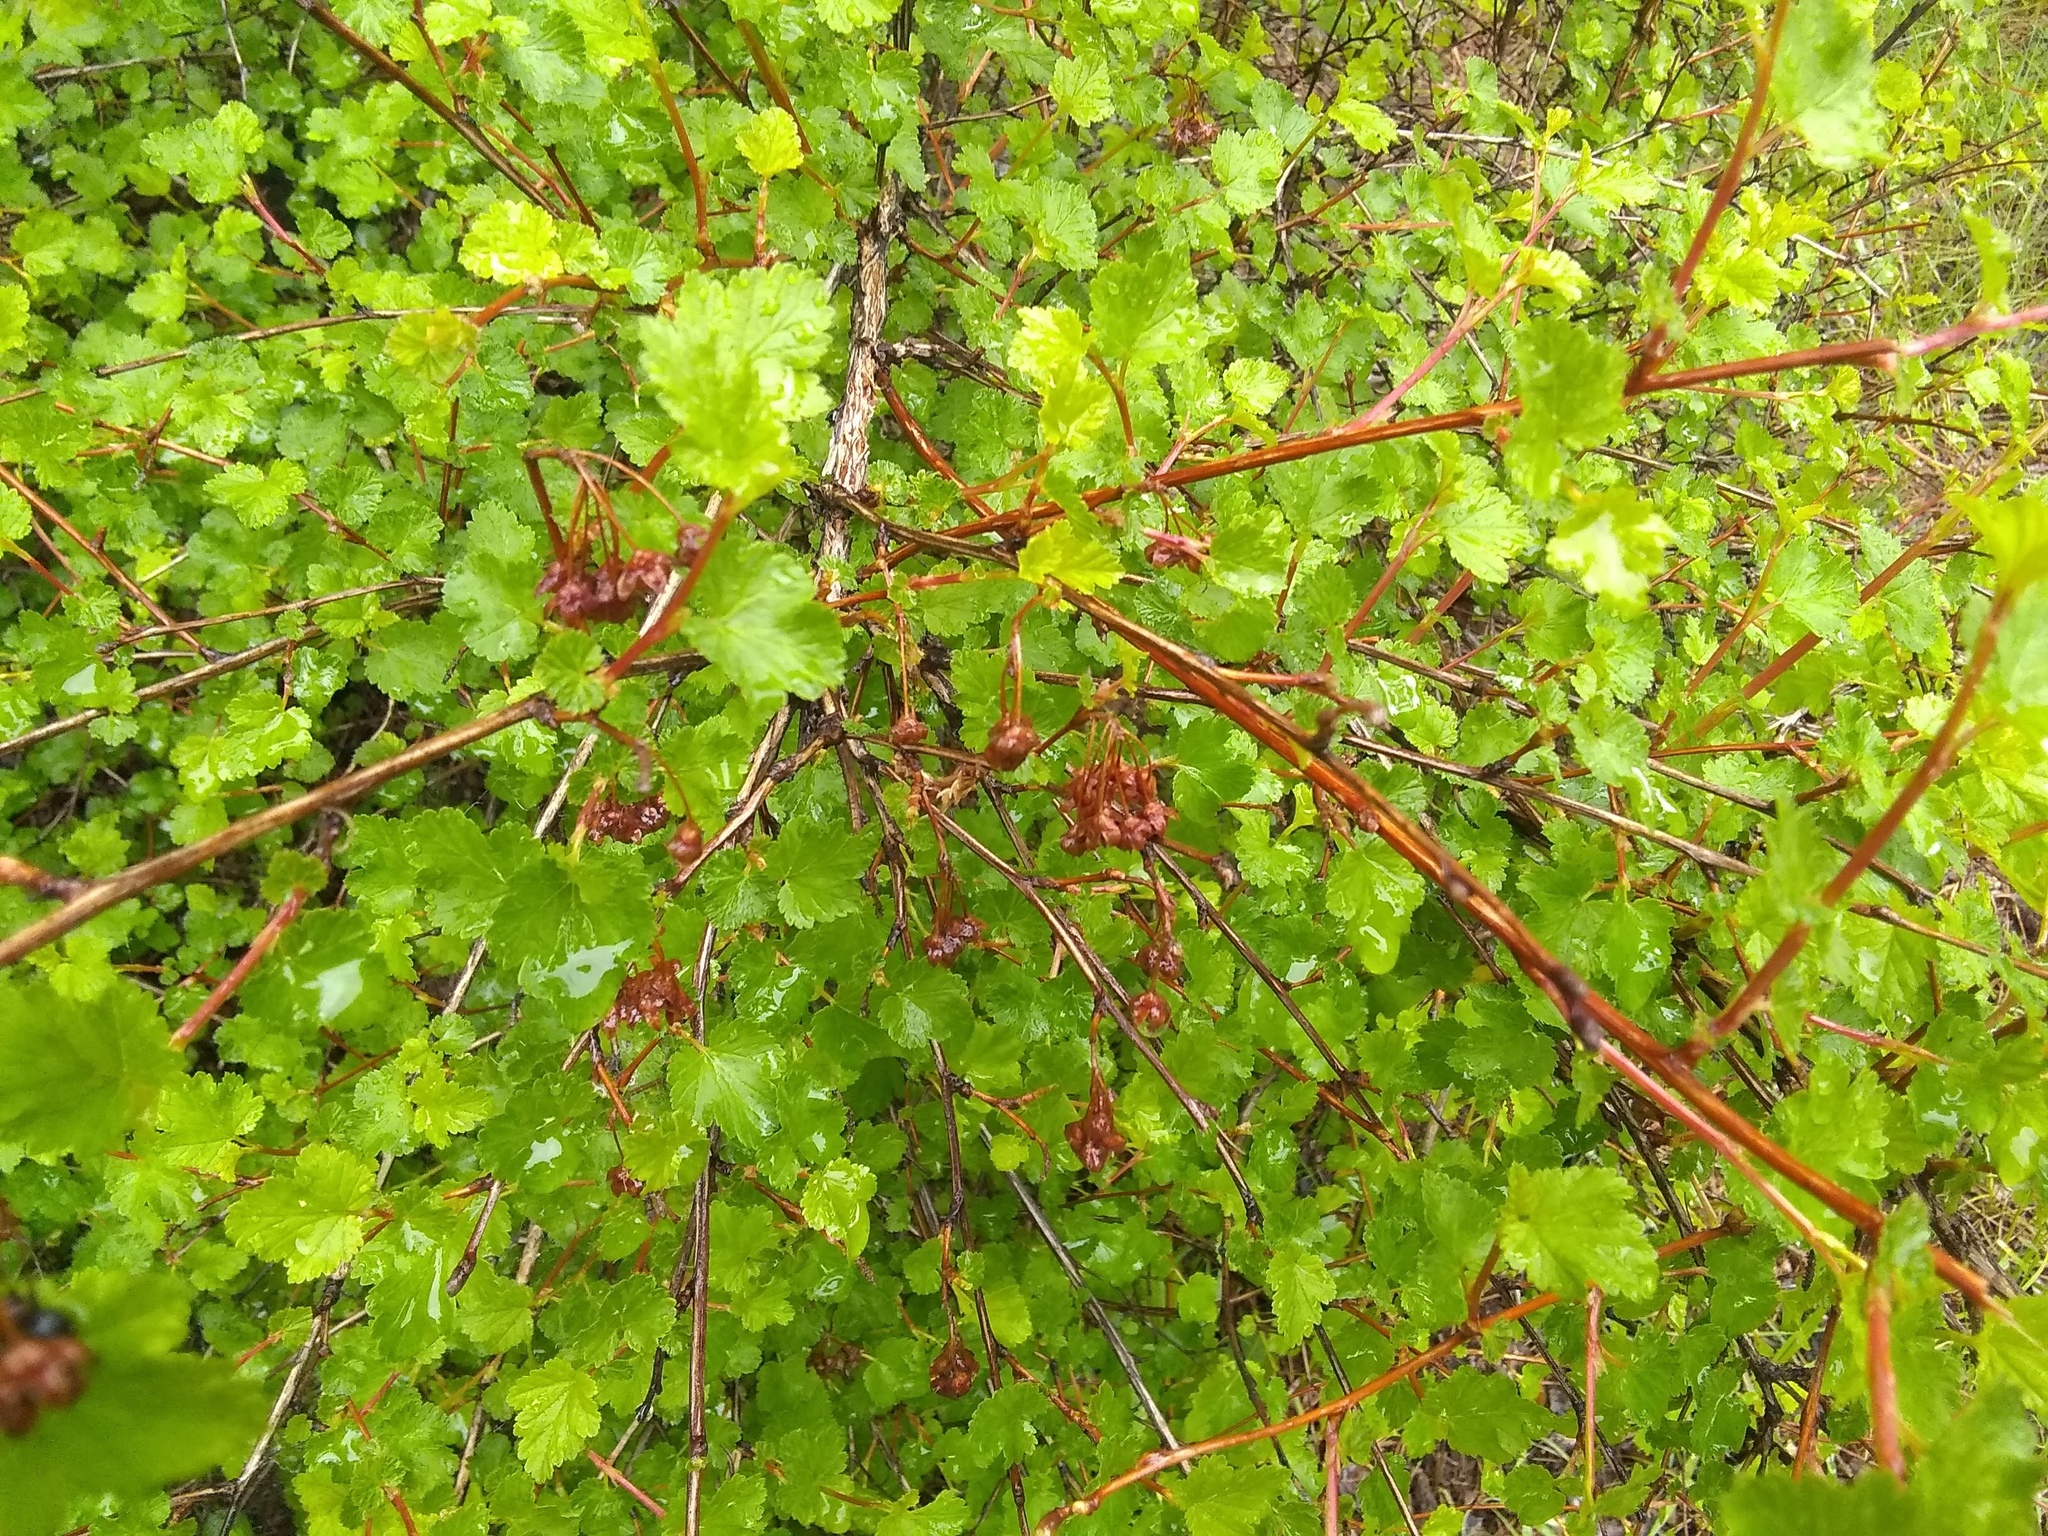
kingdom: Plantae
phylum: Tracheophyta
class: Magnoliopsida
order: Rosales
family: Rosaceae
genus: Physocarpus
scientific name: Physocarpus monogynus
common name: Mountain ninebark
